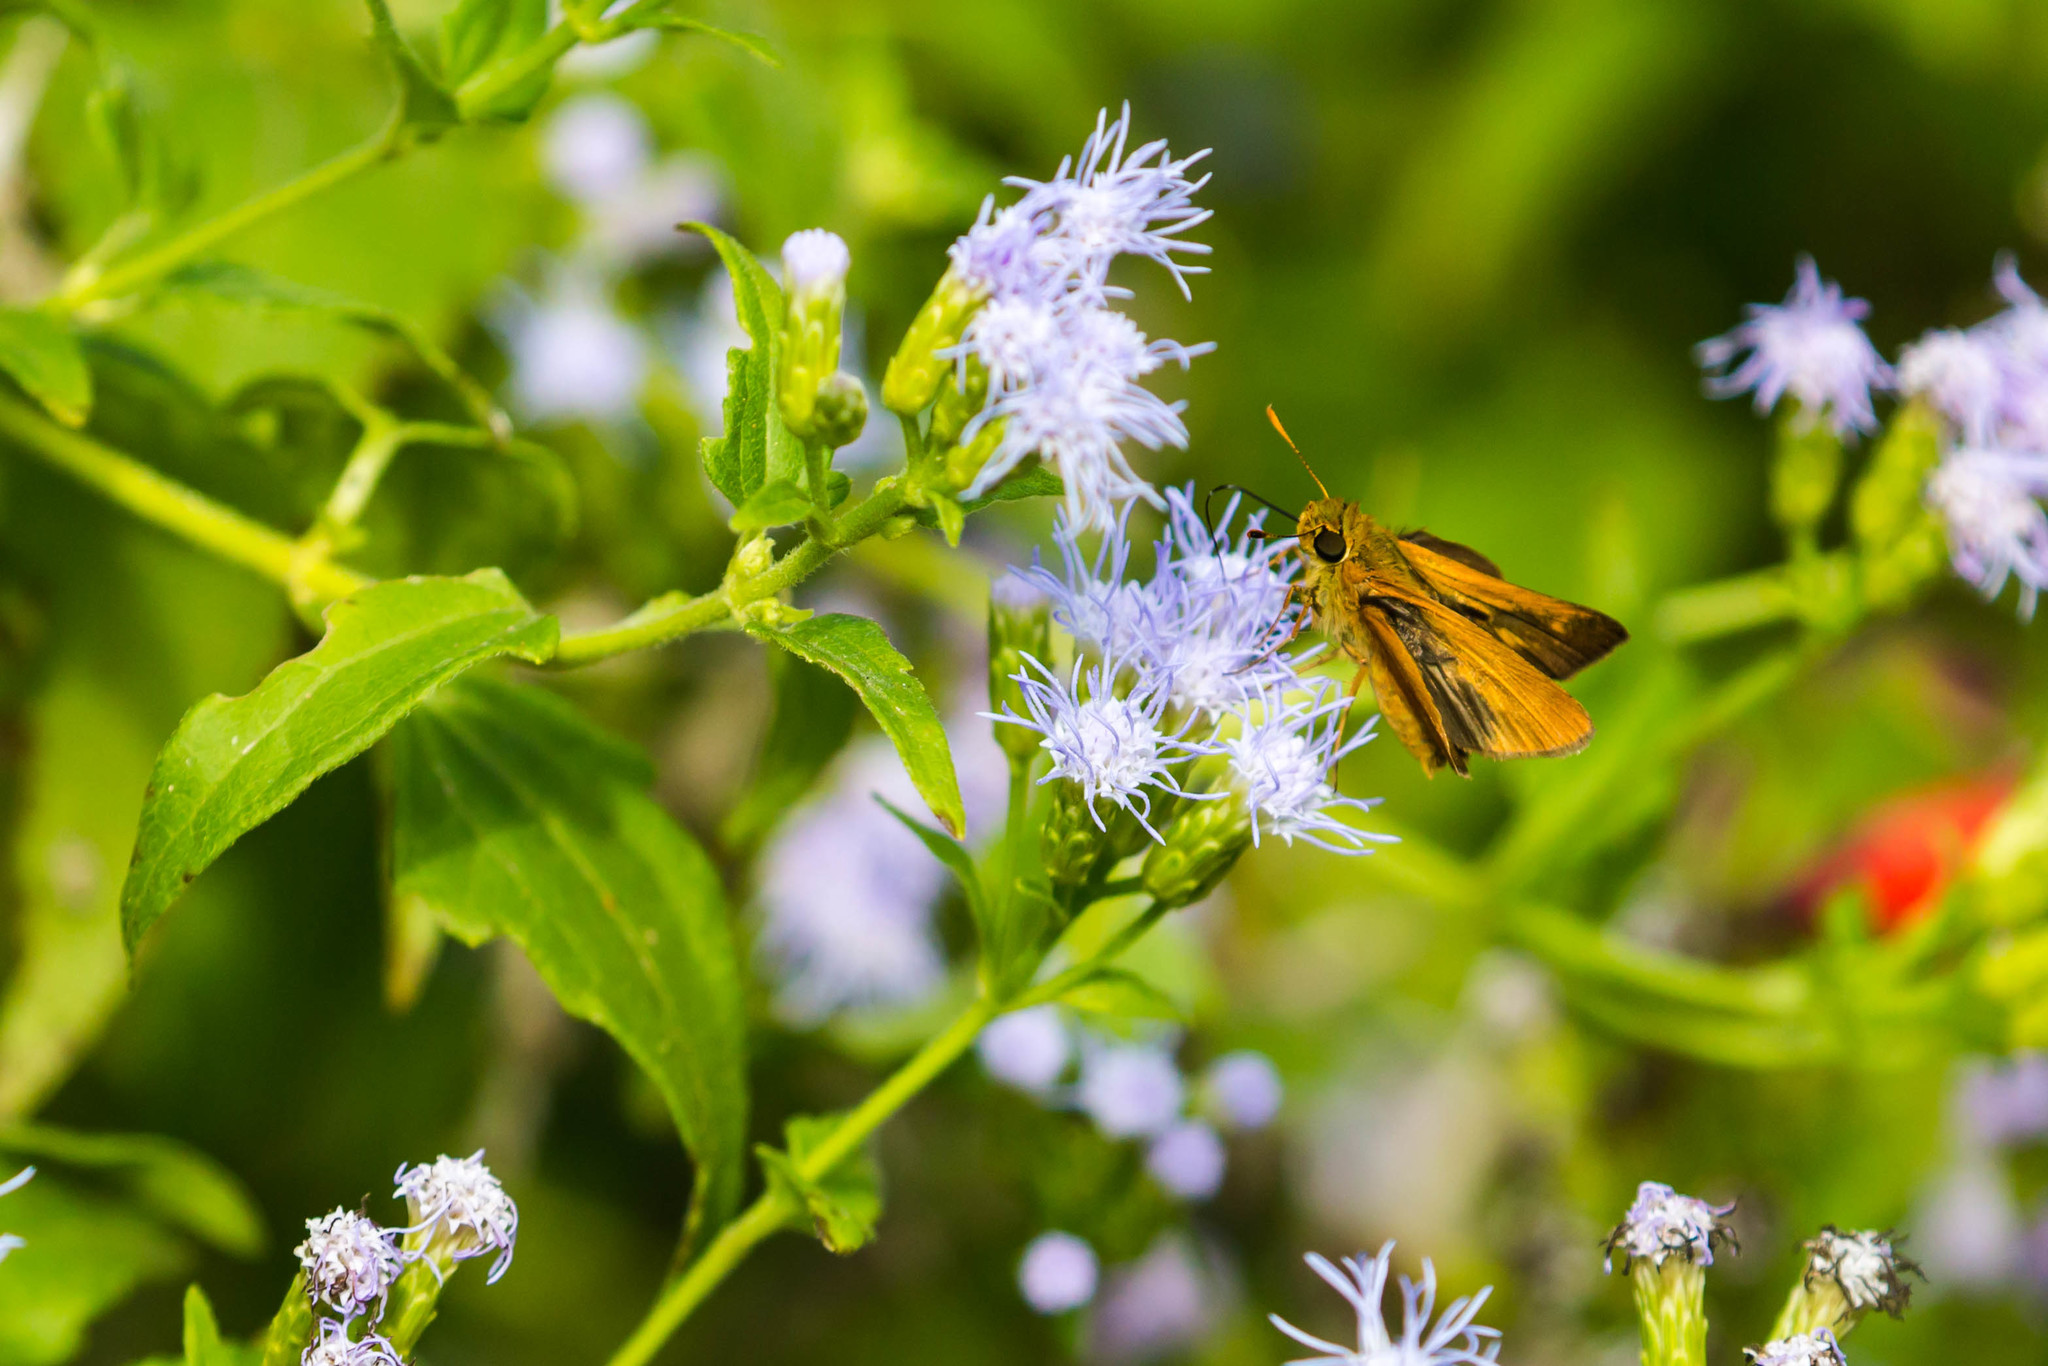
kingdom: Animalia
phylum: Arthropoda
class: Insecta
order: Lepidoptera
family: Hesperiidae
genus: Polites
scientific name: Polites otho
